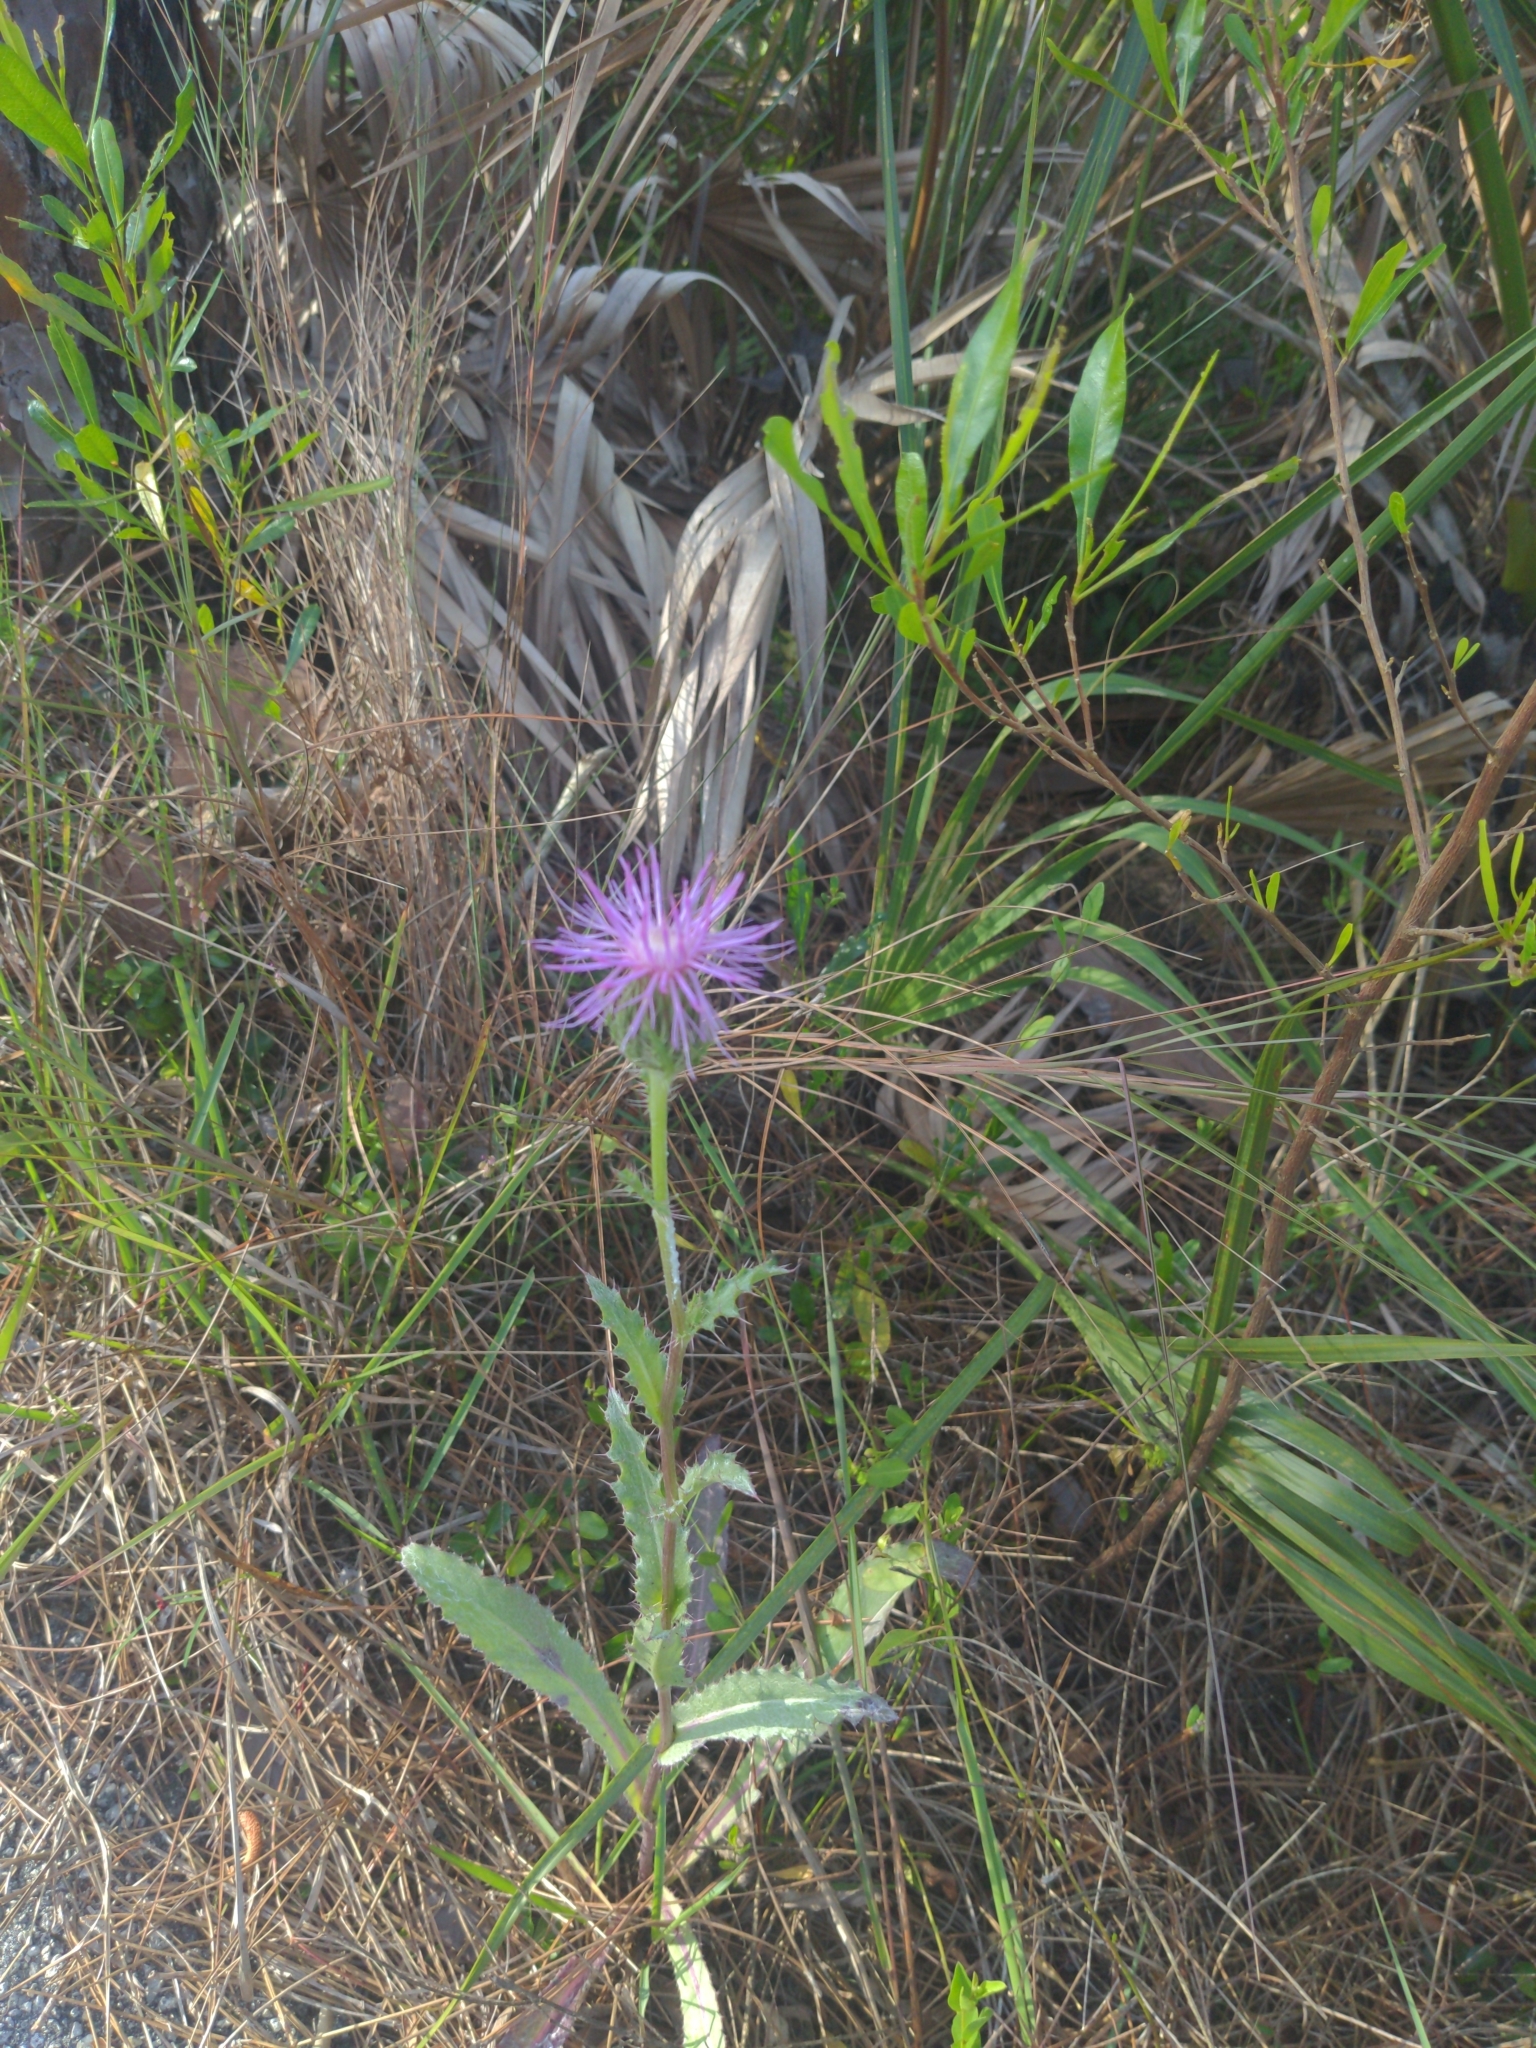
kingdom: Plantae
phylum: Tracheophyta
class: Magnoliopsida
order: Asterales
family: Asteraceae
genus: Cirsium
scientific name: Cirsium horridulum
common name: Bristly thistle
